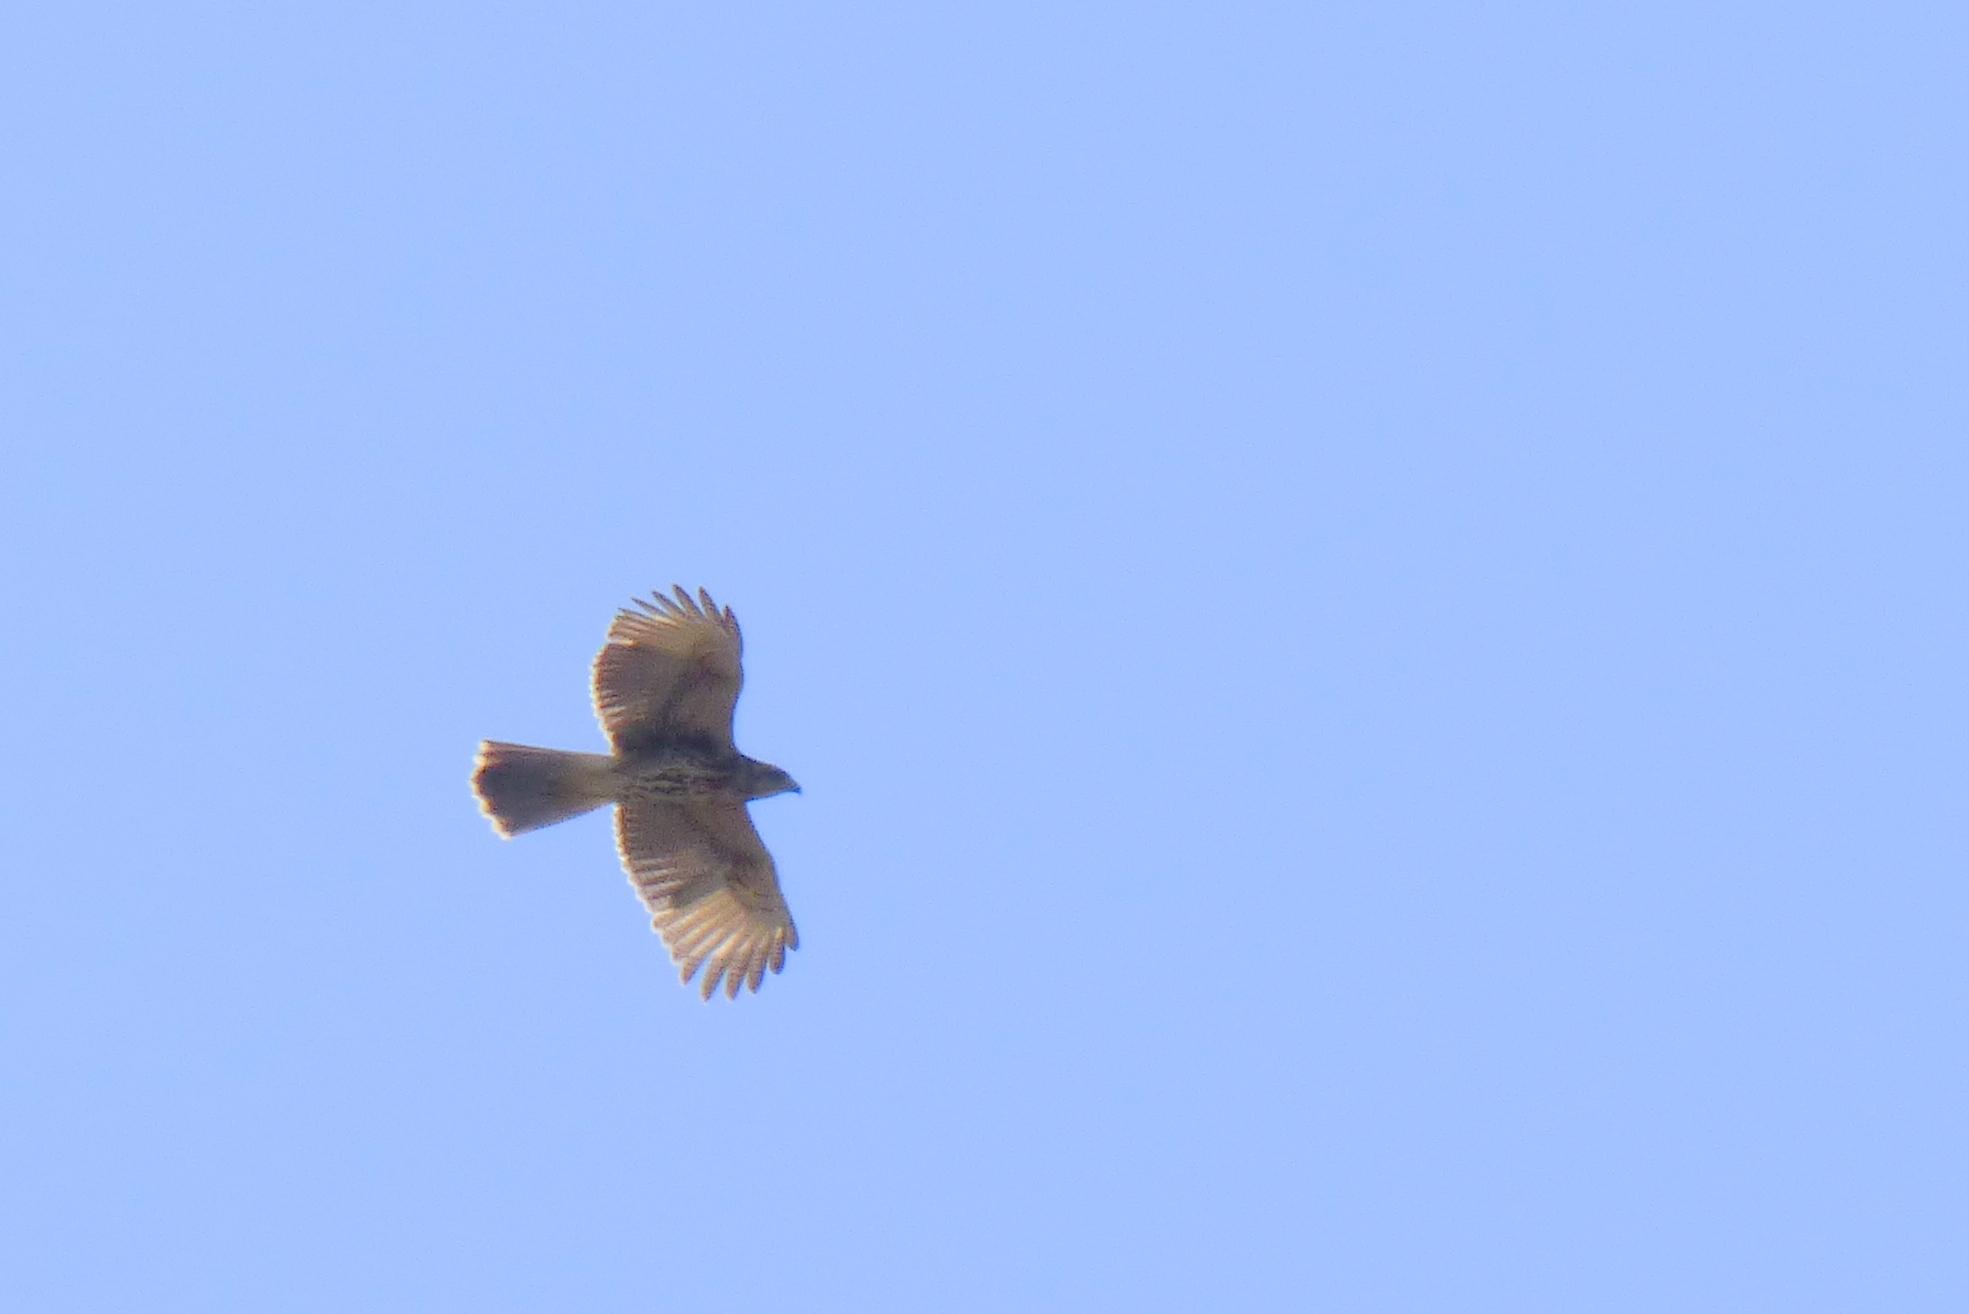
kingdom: Animalia
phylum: Chordata
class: Aves
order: Accipitriformes
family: Accipitridae
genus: Parabuteo
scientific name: Parabuteo unicinctus
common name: Harris's hawk
